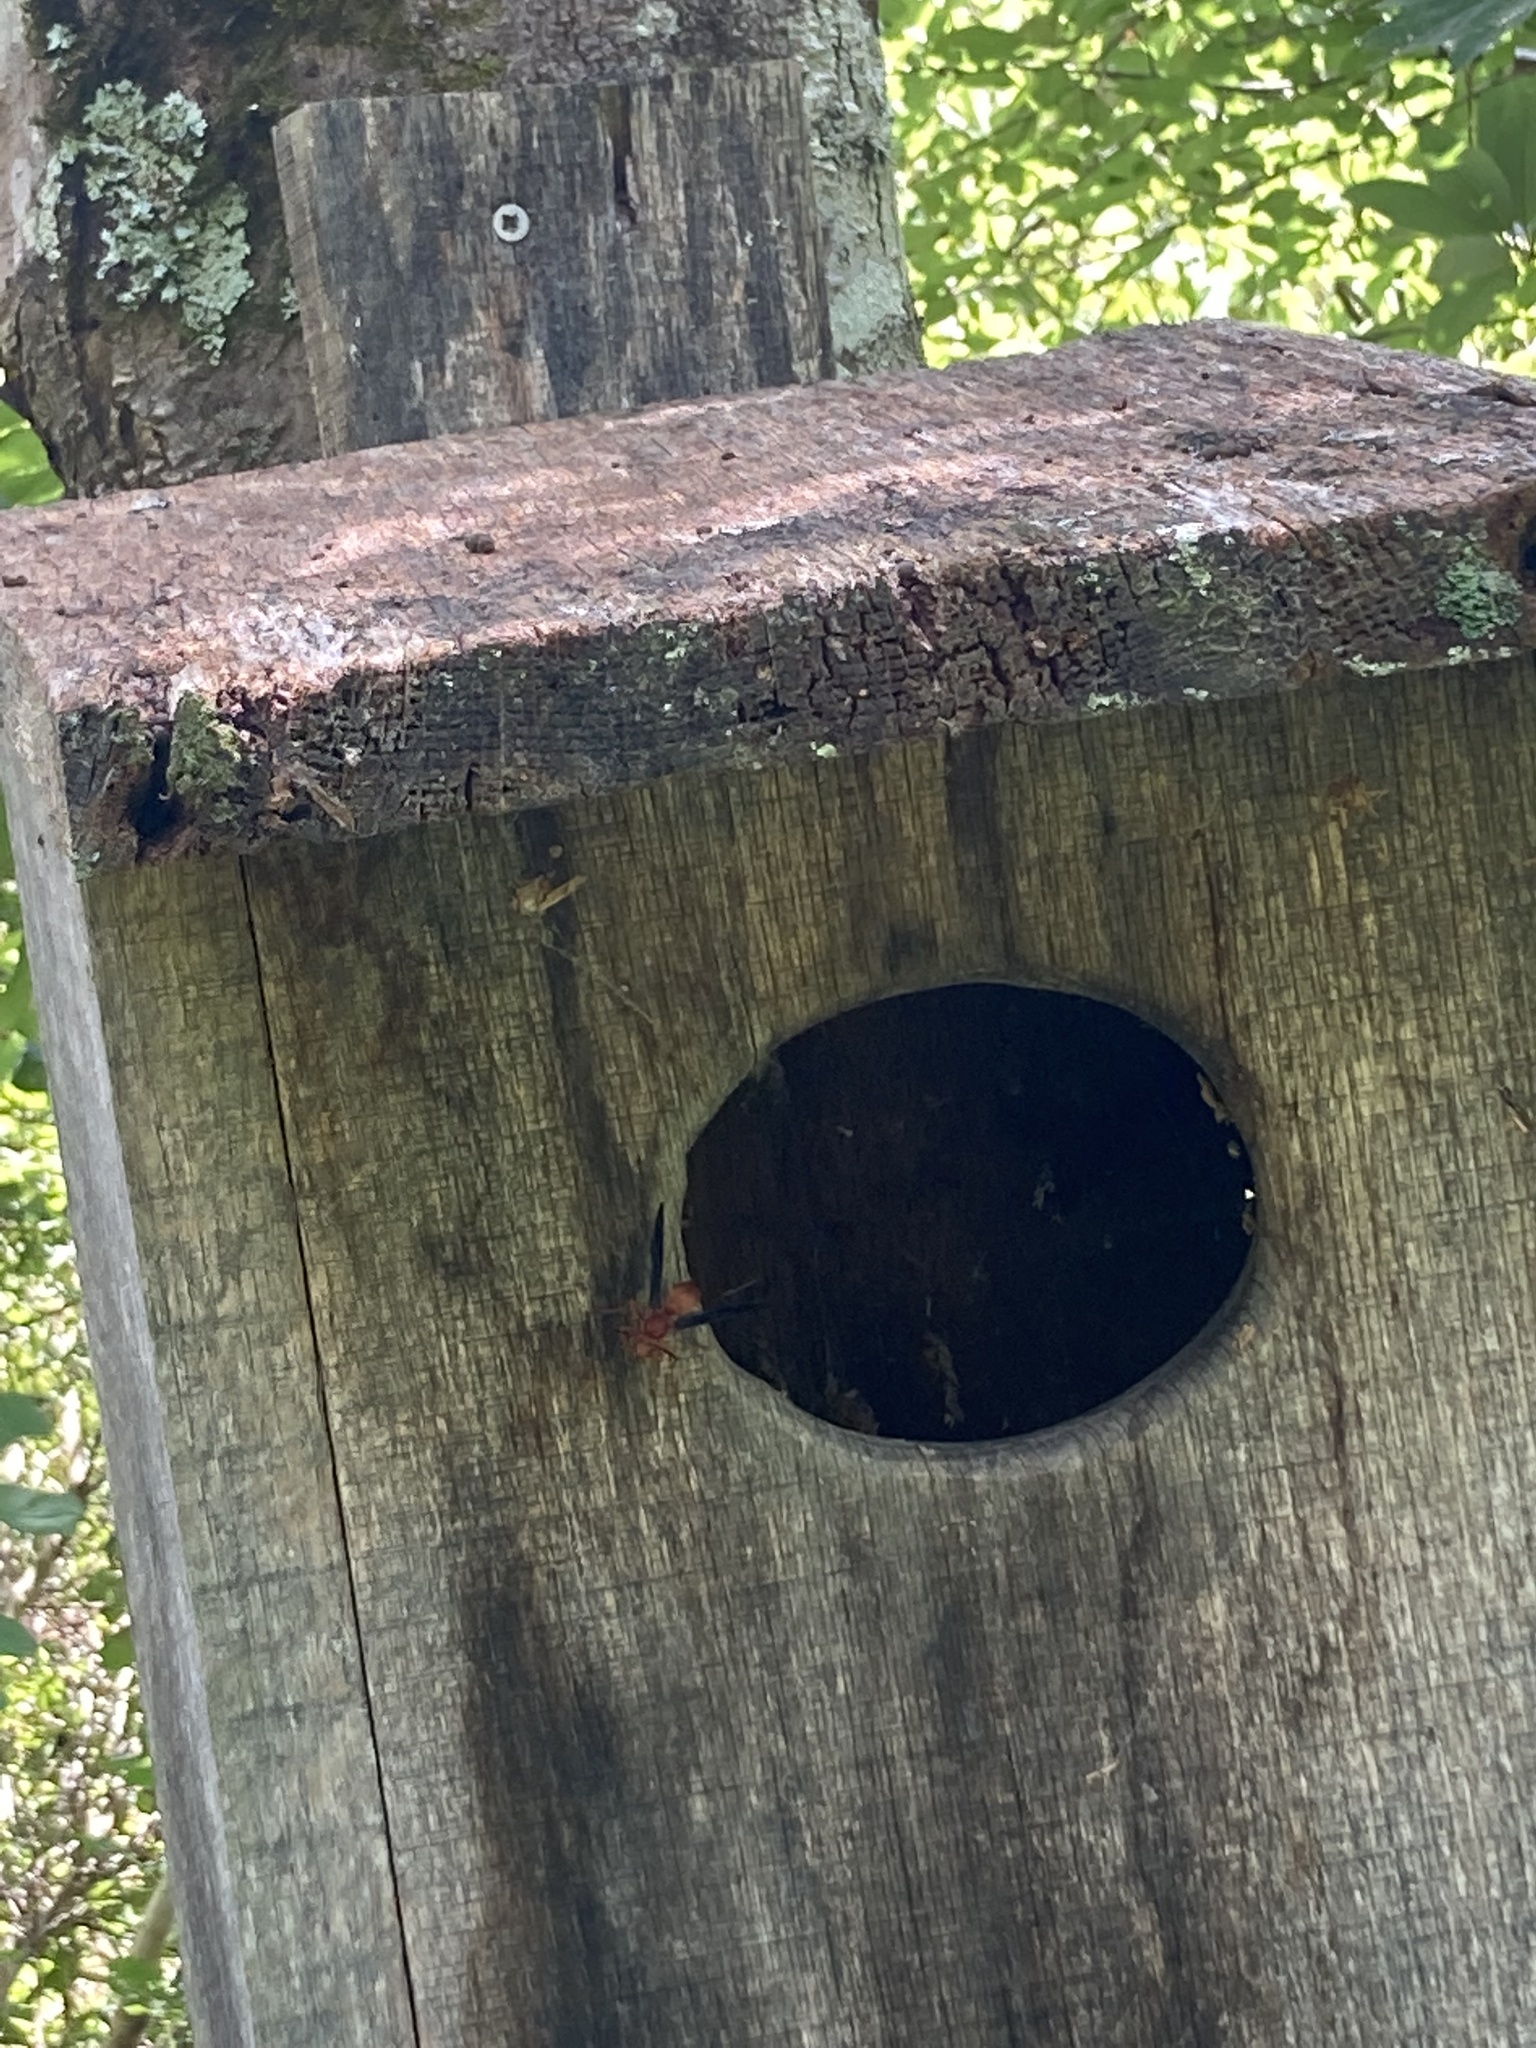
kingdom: Animalia
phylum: Arthropoda
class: Insecta
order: Hymenoptera
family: Vespidae
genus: Fuscopolistes
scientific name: Fuscopolistes
